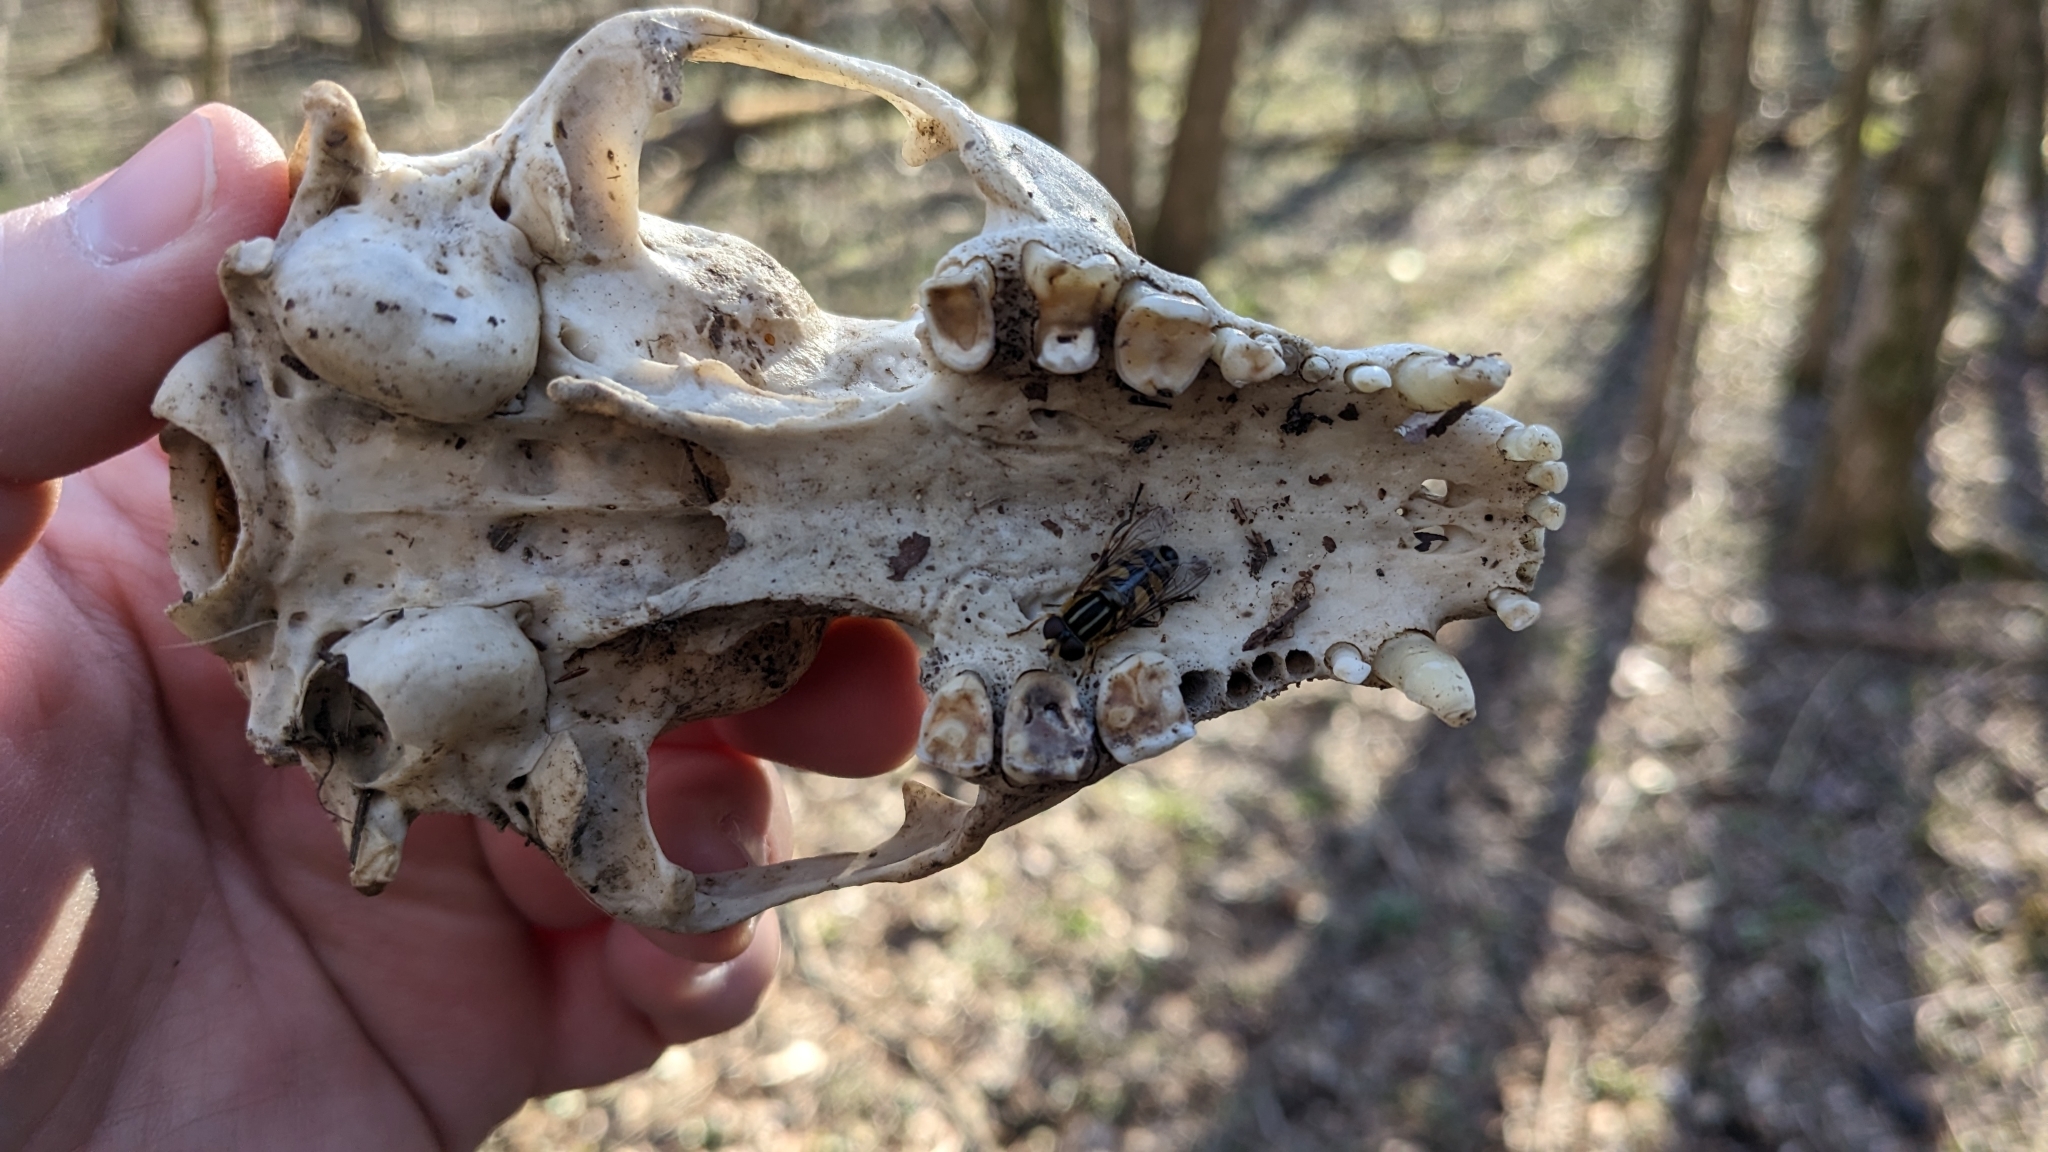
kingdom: Animalia
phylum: Chordata
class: Mammalia
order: Carnivora
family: Procyonidae
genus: Procyon
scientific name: Procyon lotor
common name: Raccoon
